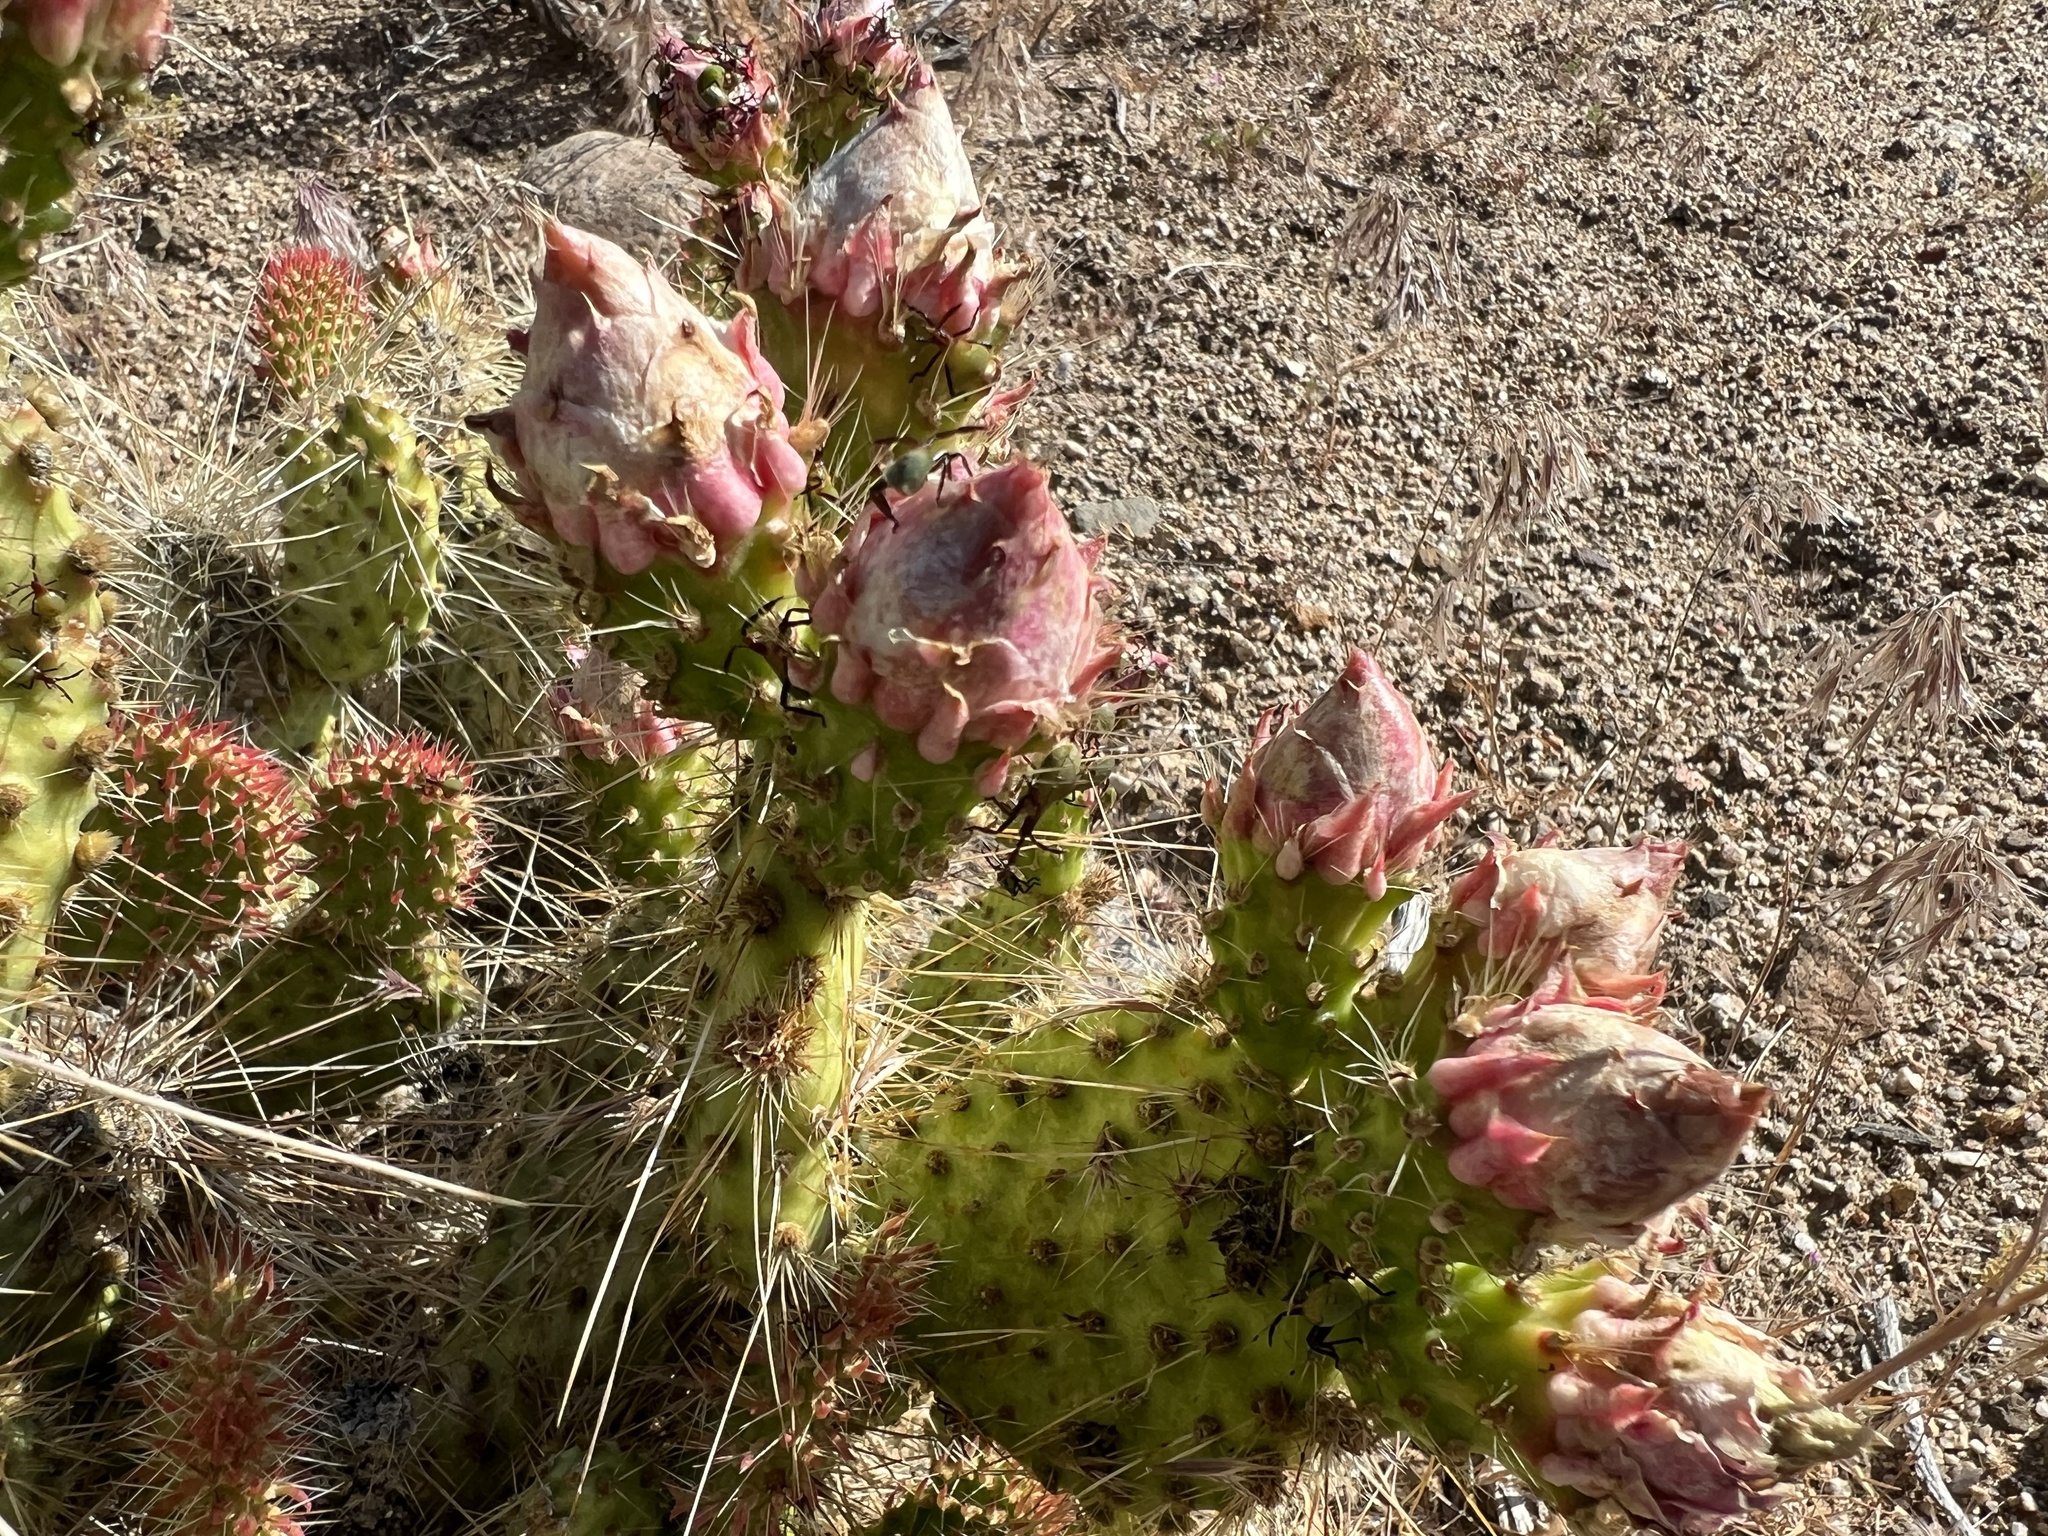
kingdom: Plantae
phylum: Tracheophyta
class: Magnoliopsida
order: Caryophyllales
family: Cactaceae
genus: Opuntia
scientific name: Opuntia polyacantha
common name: Plains prickly-pear
